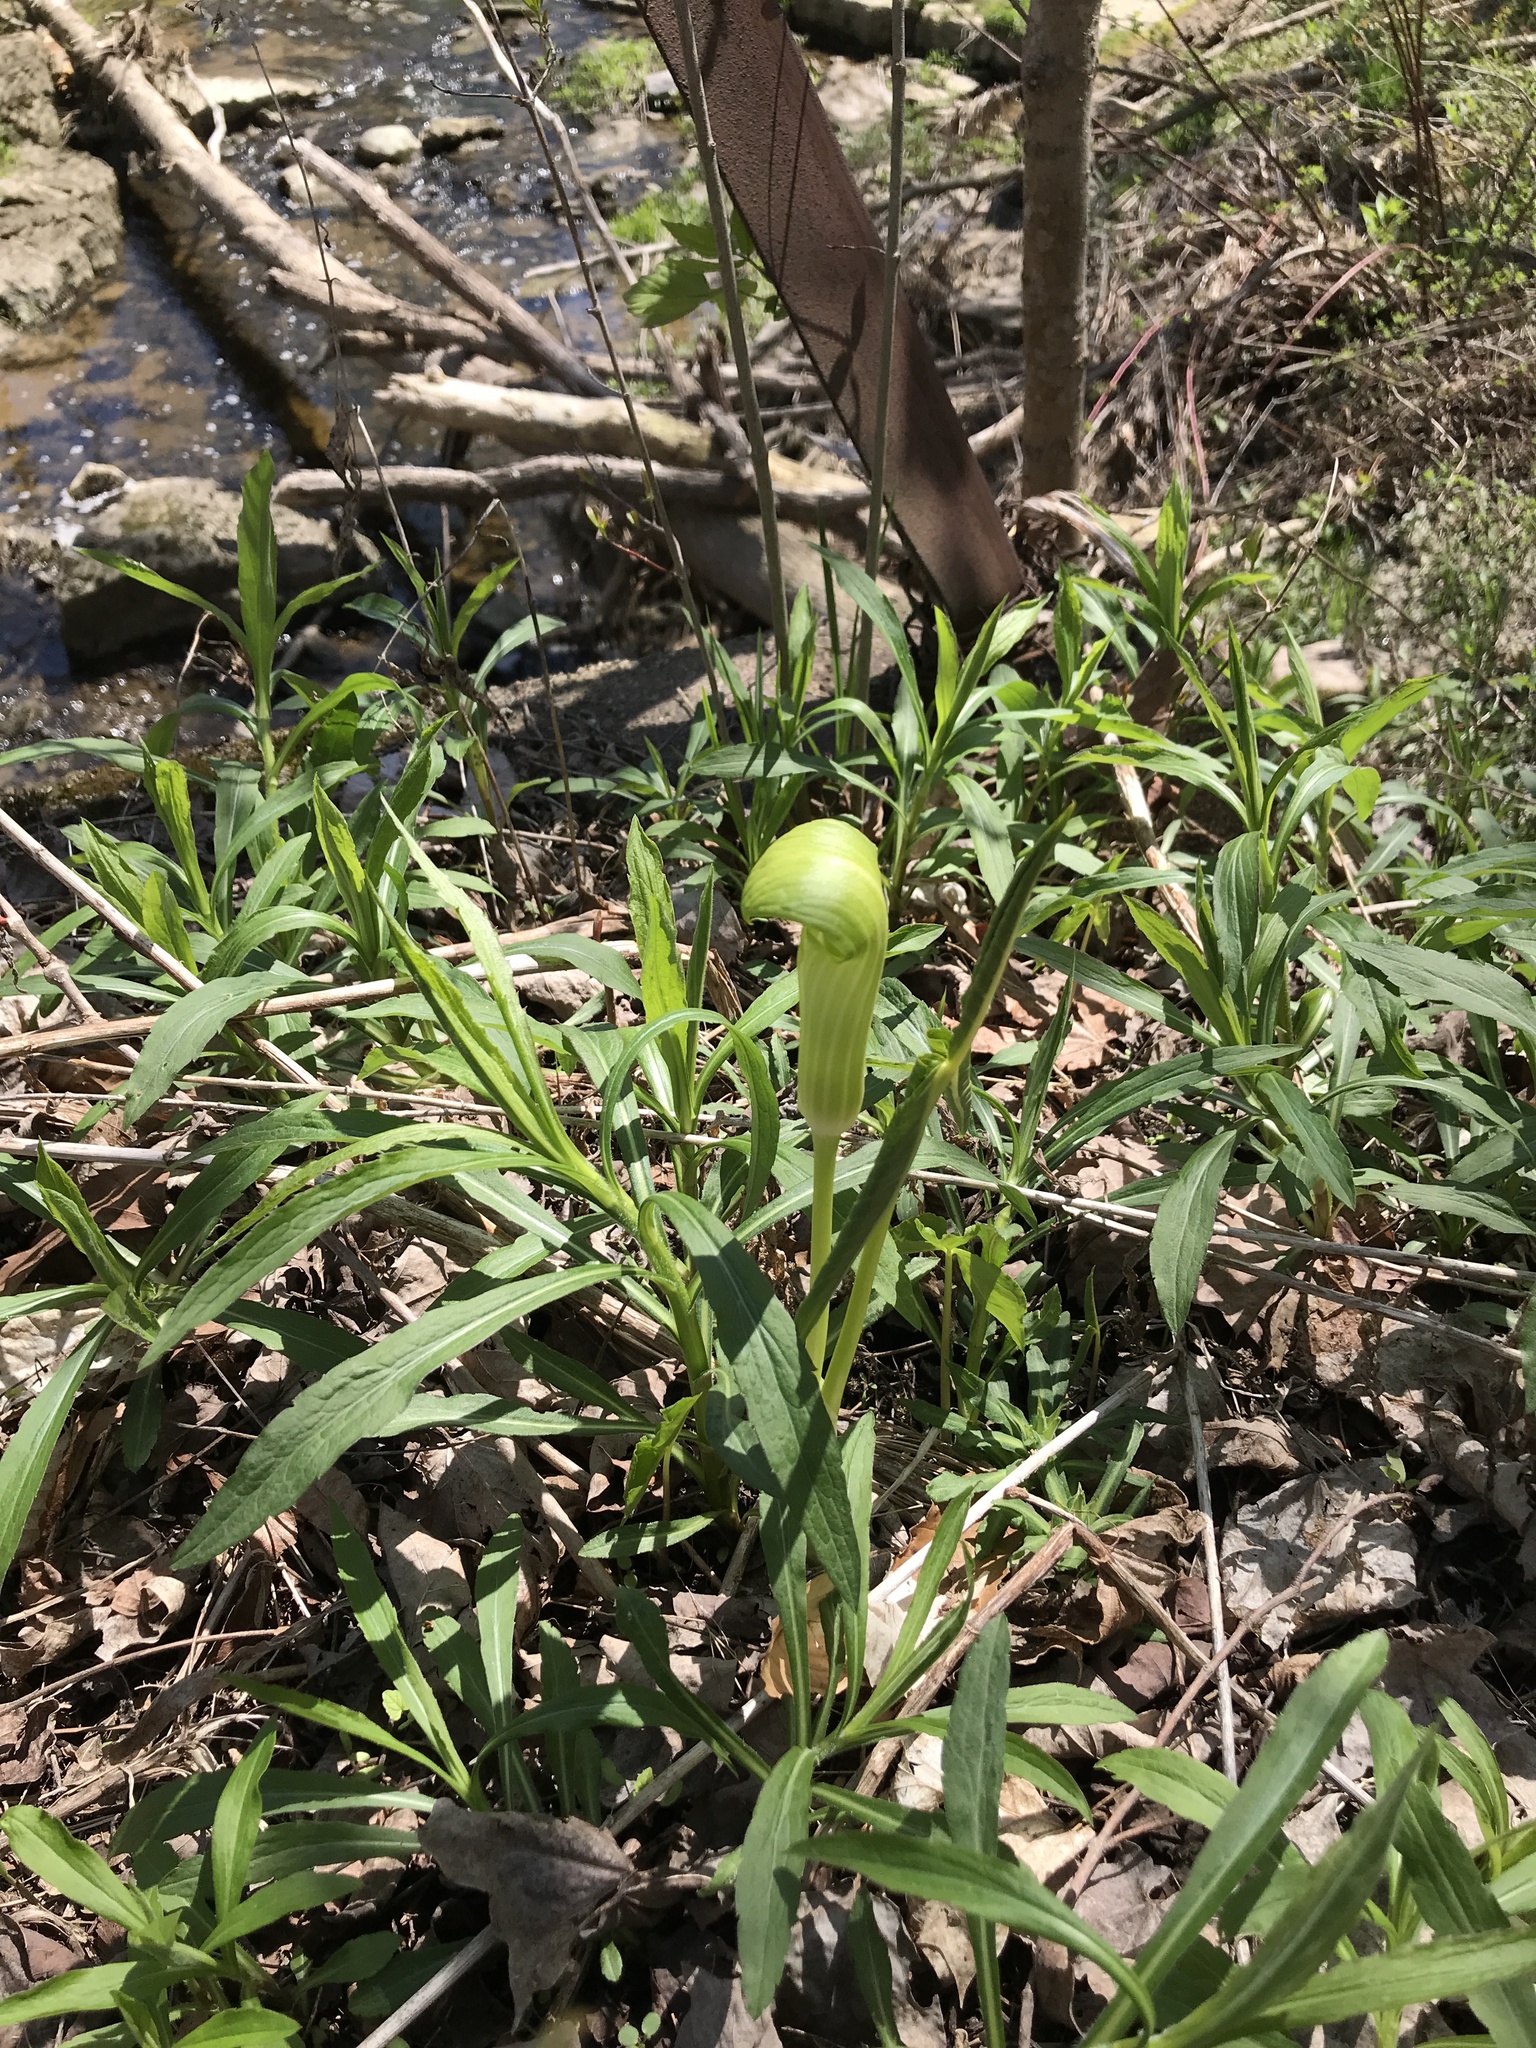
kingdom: Plantae
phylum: Tracheophyta
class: Liliopsida
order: Alismatales
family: Araceae
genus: Arisaema
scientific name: Arisaema triphyllum
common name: Jack-in-the-pulpit
